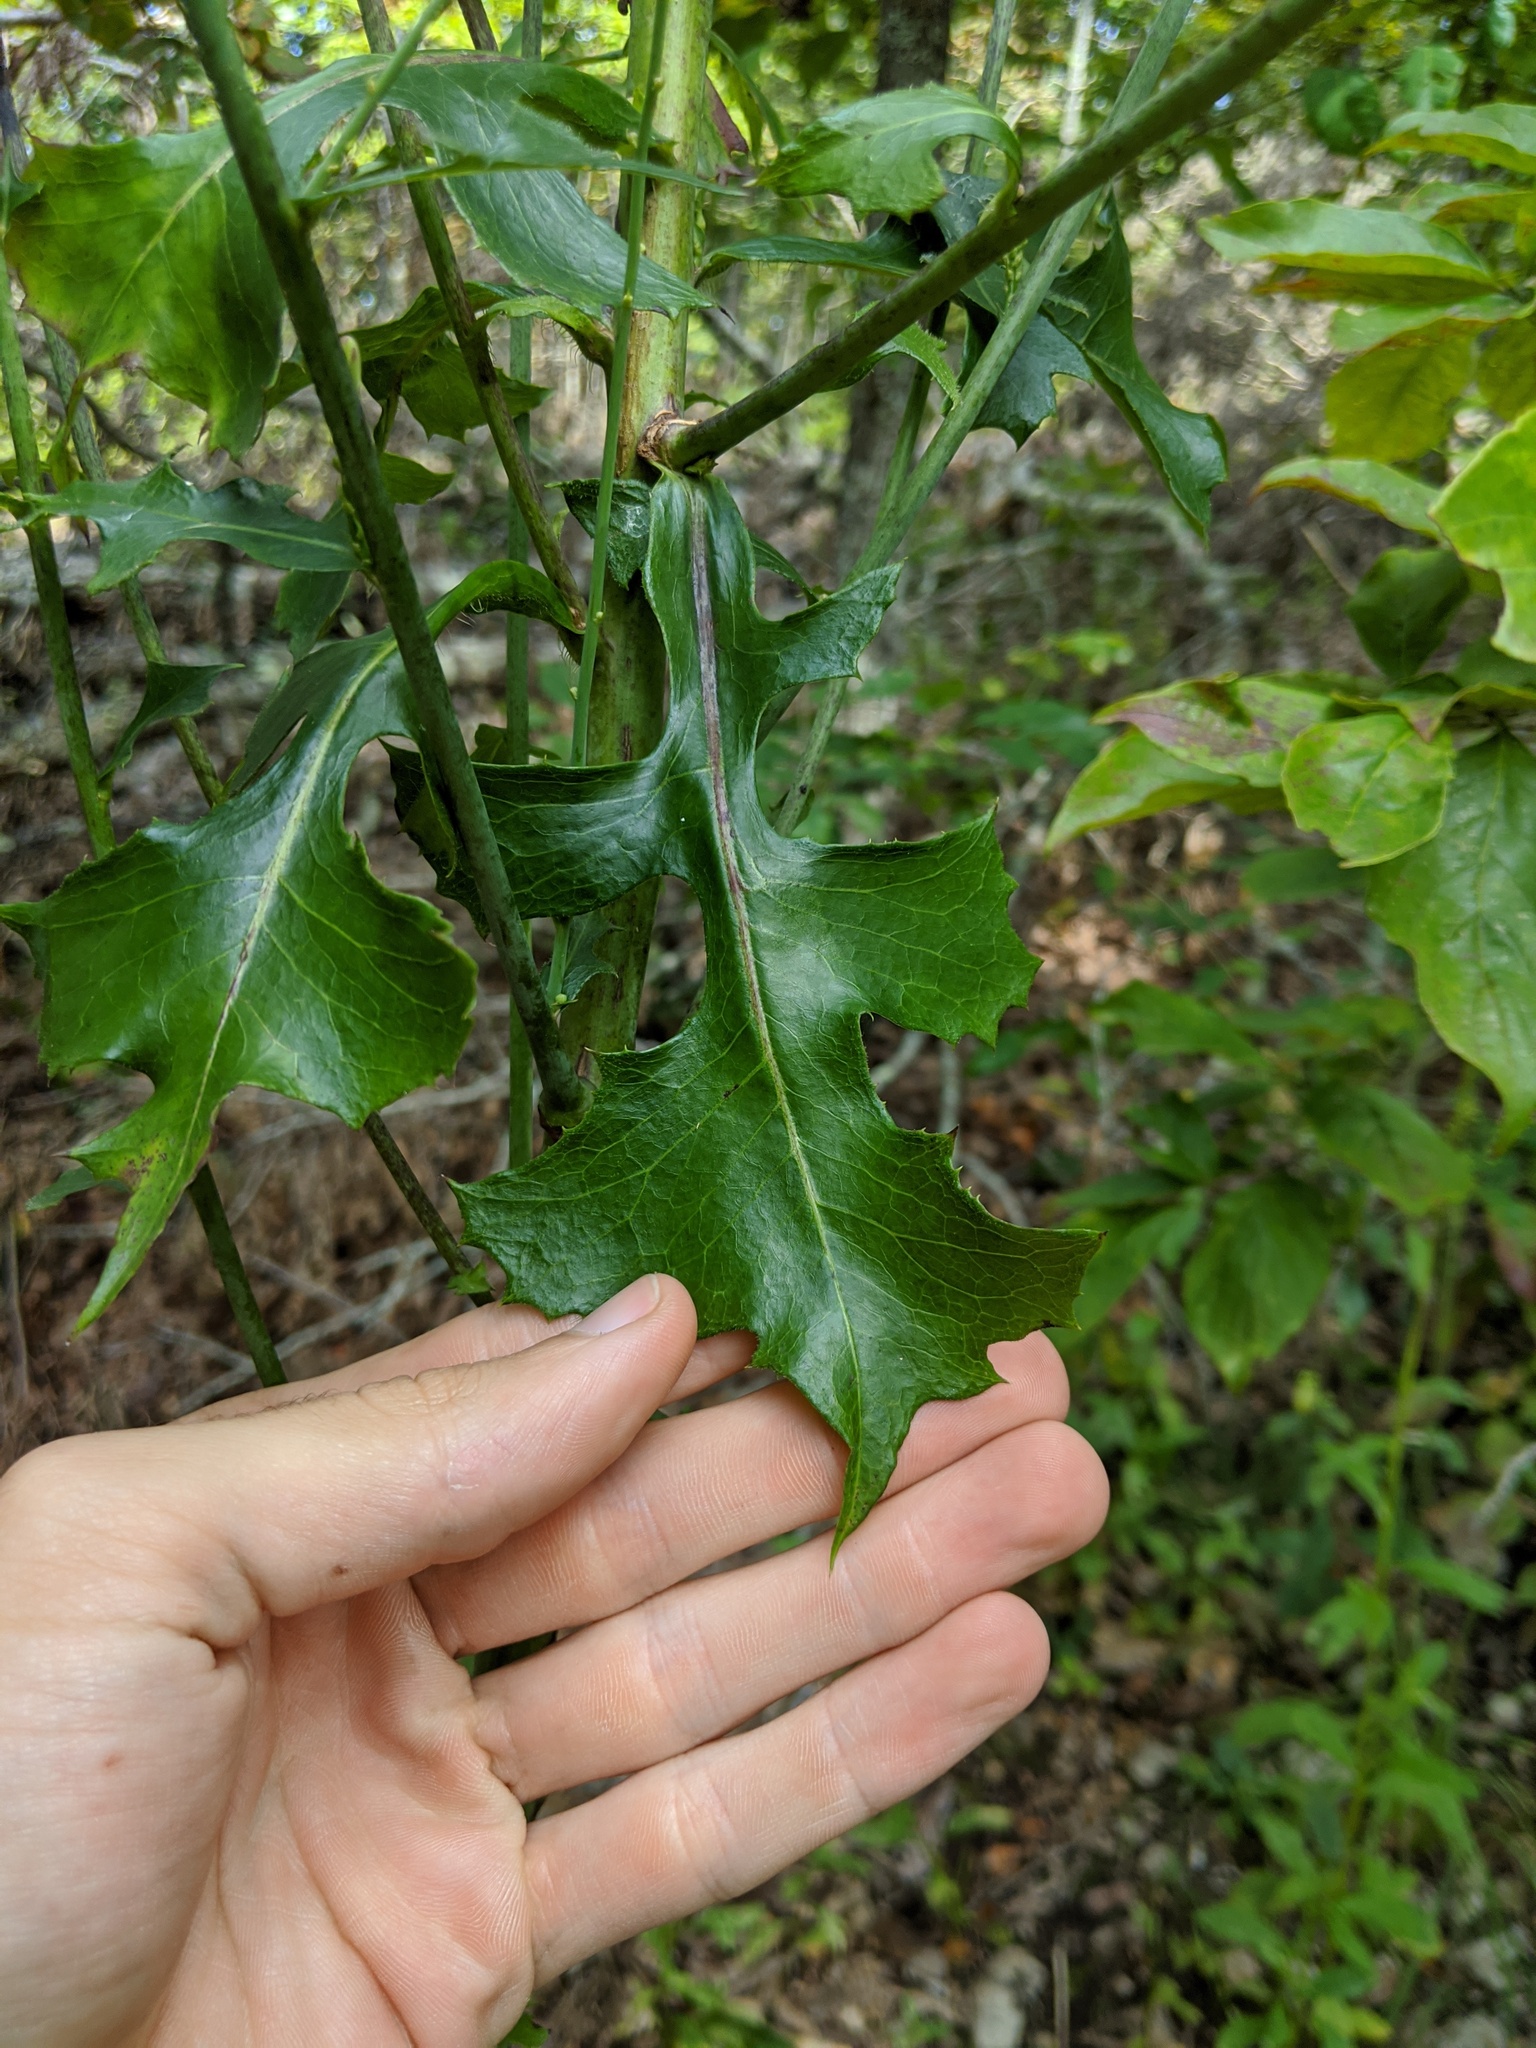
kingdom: Plantae
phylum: Tracheophyta
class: Magnoliopsida
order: Asterales
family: Asteraceae
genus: Lactuca
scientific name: Lactuca hirsuta
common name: Hairy lettuce
